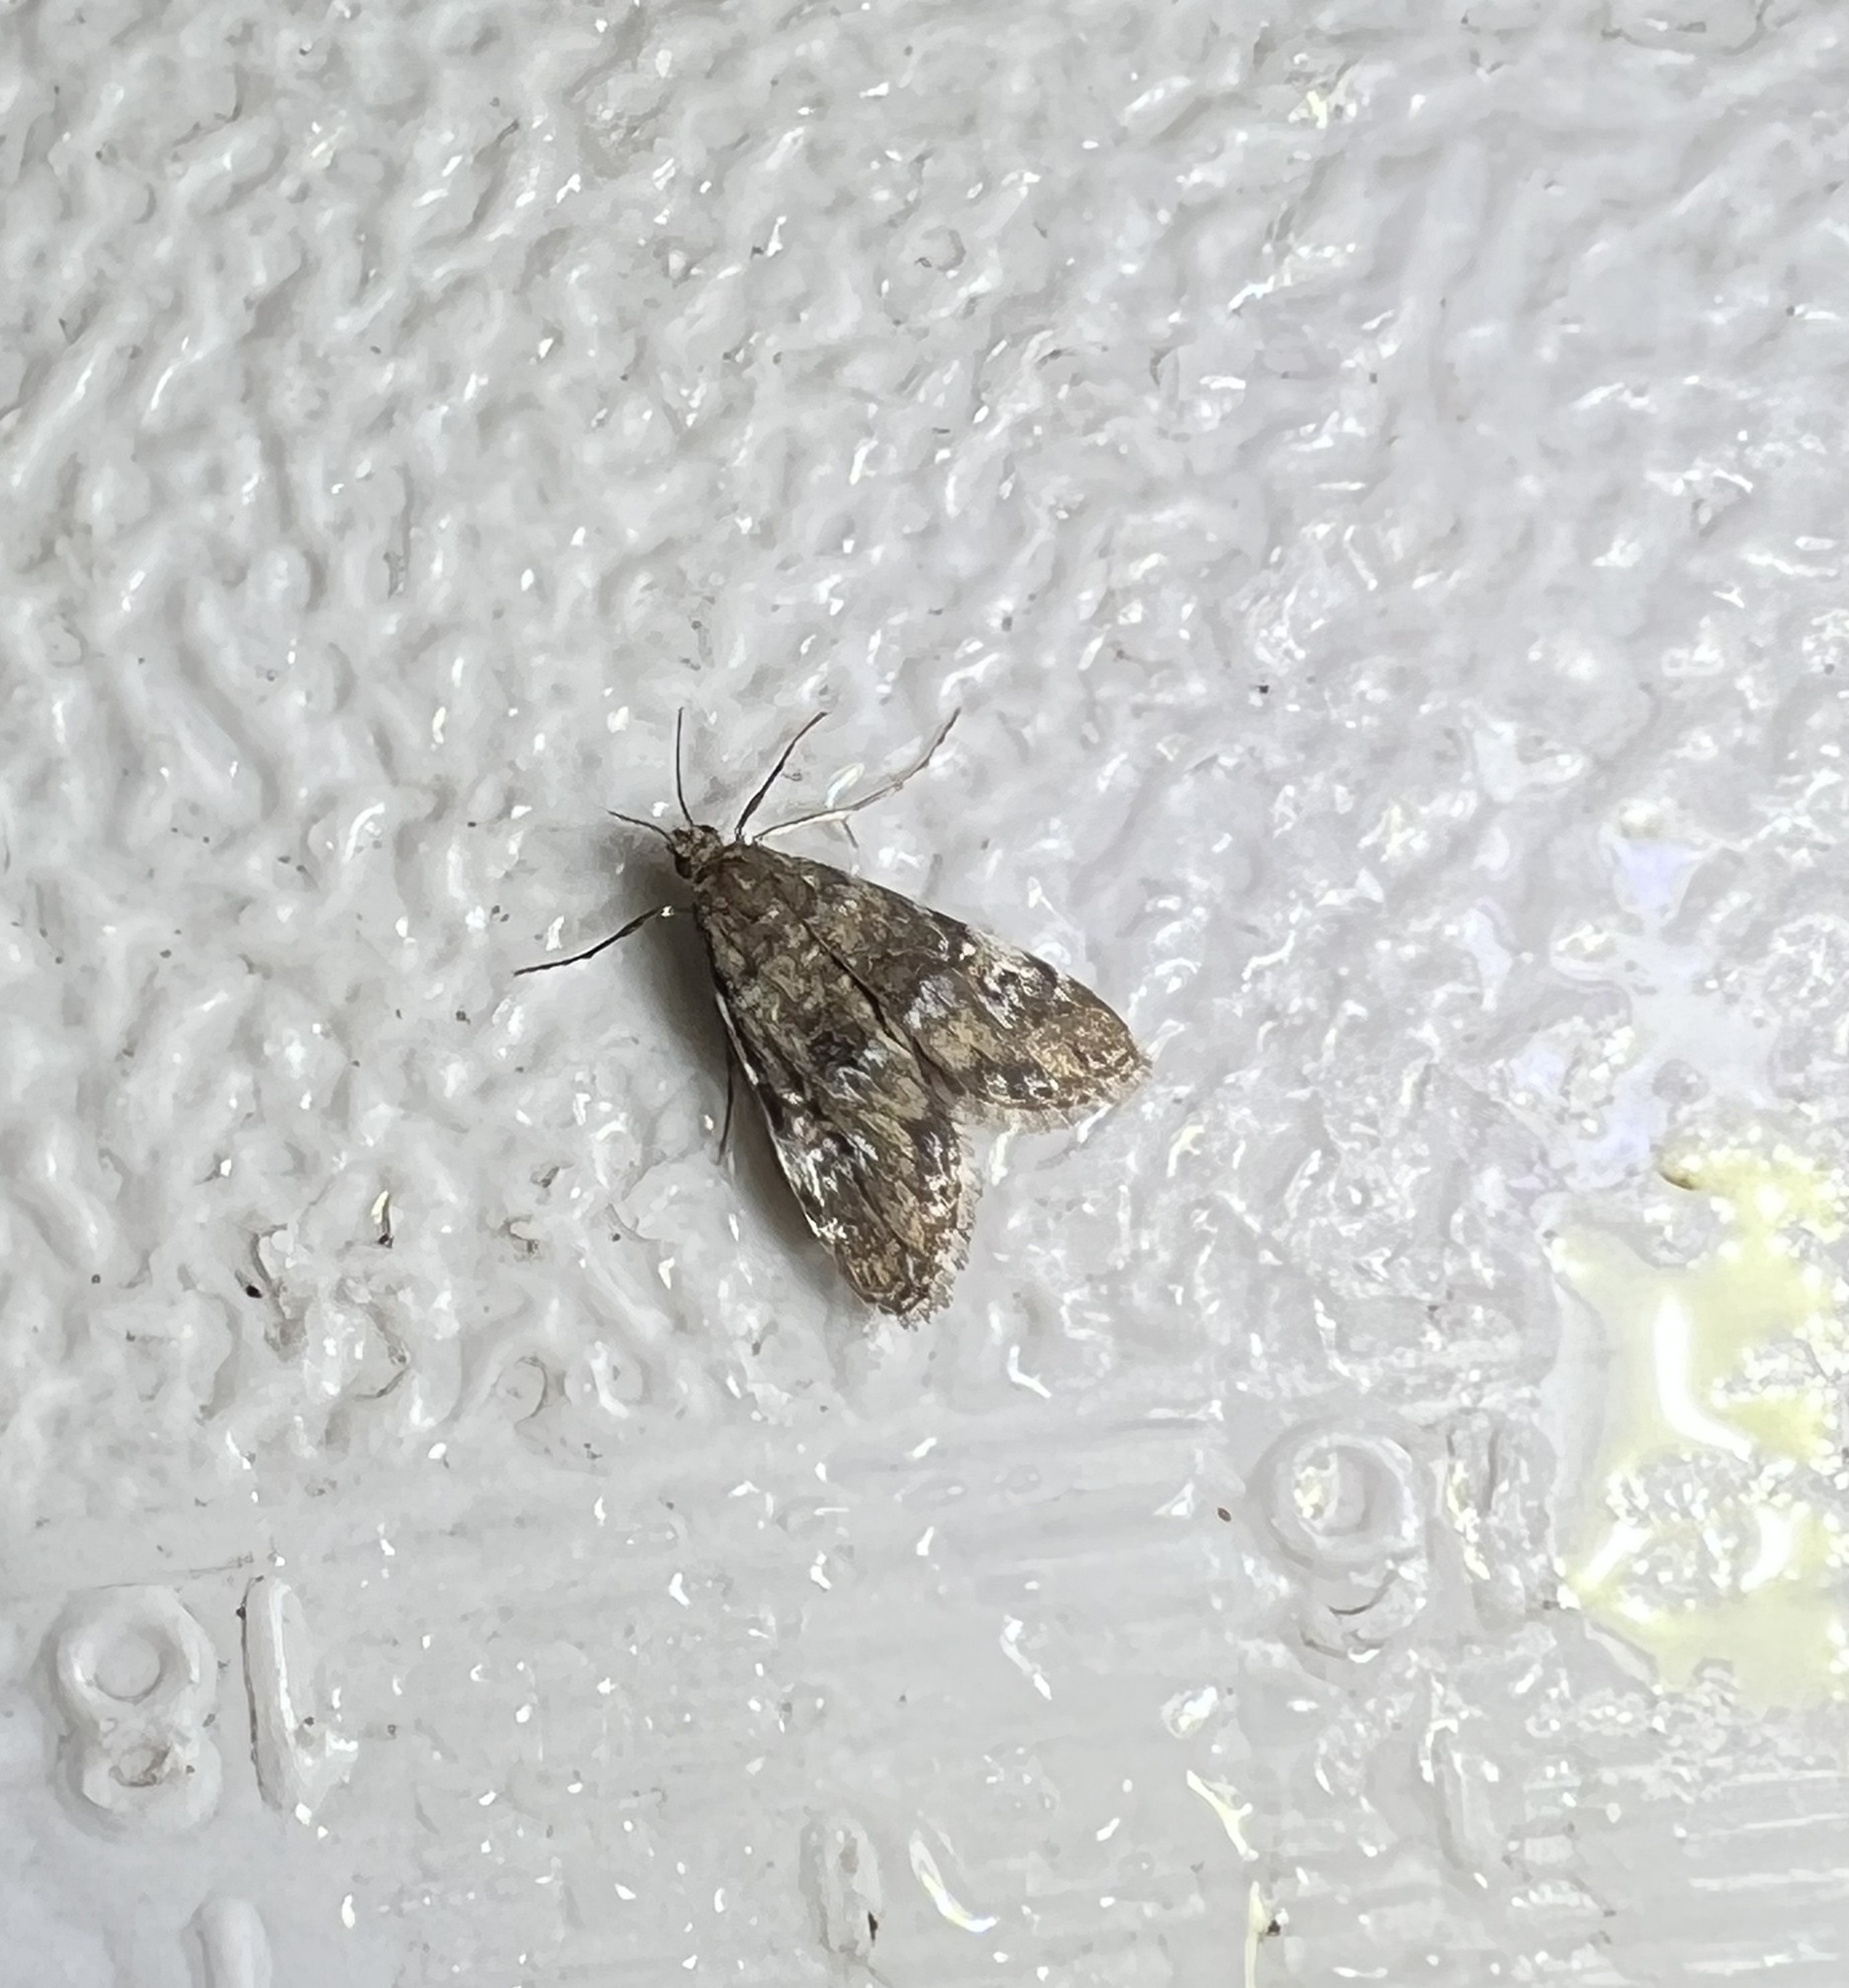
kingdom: Animalia
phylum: Arthropoda
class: Insecta
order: Lepidoptera
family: Crambidae
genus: Elophila
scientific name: Elophila obliteralis
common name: Waterlily leafcutter moth
